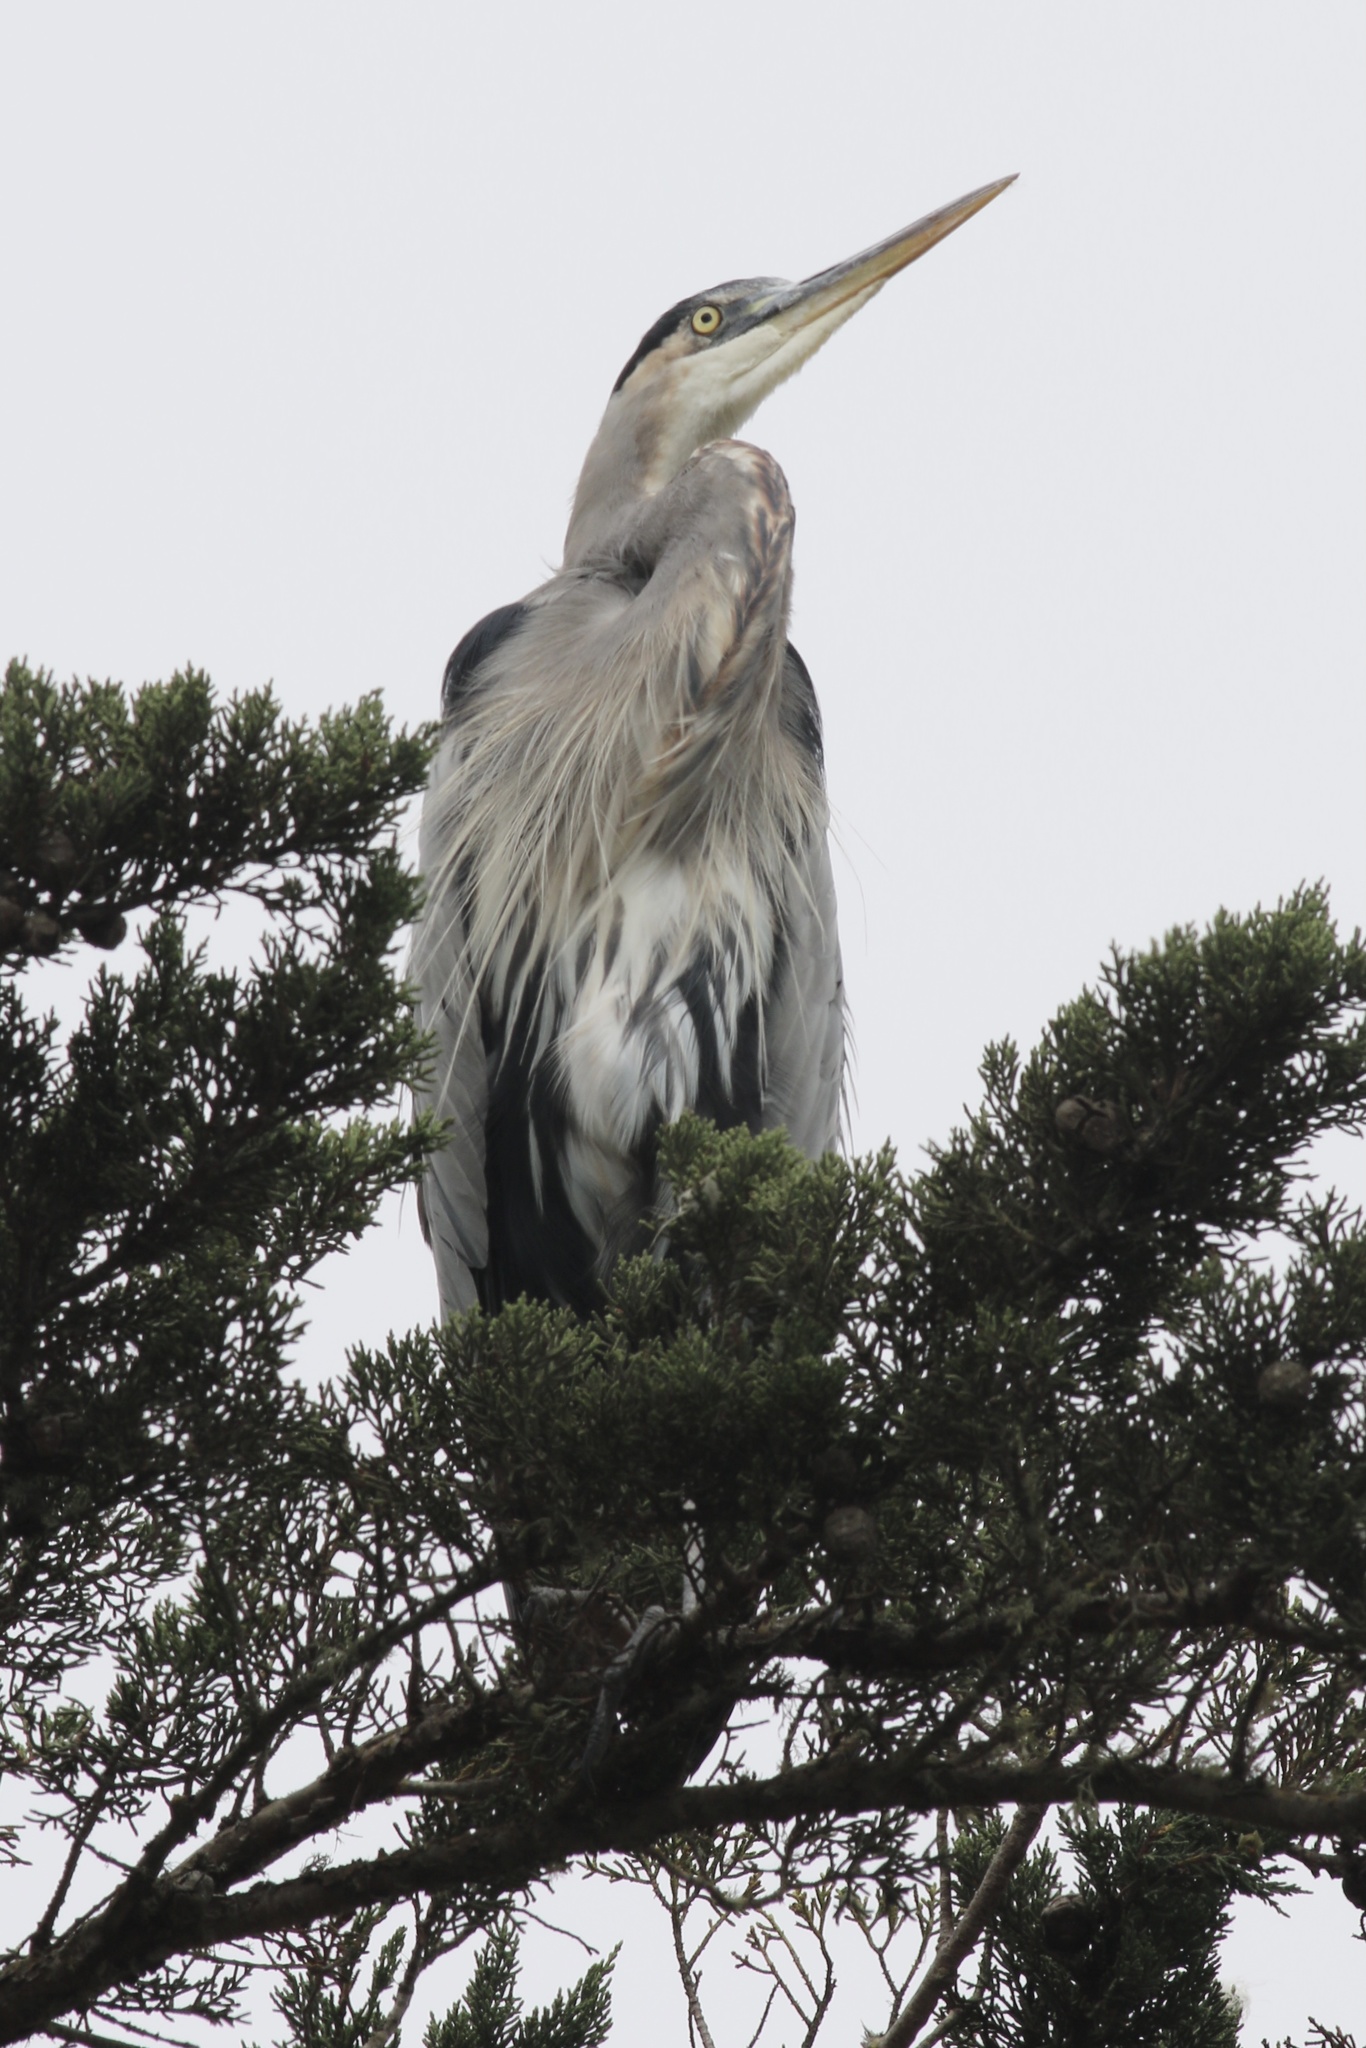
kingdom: Animalia
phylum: Chordata
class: Aves
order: Pelecaniformes
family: Ardeidae
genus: Ardea
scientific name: Ardea herodias
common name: Great blue heron
